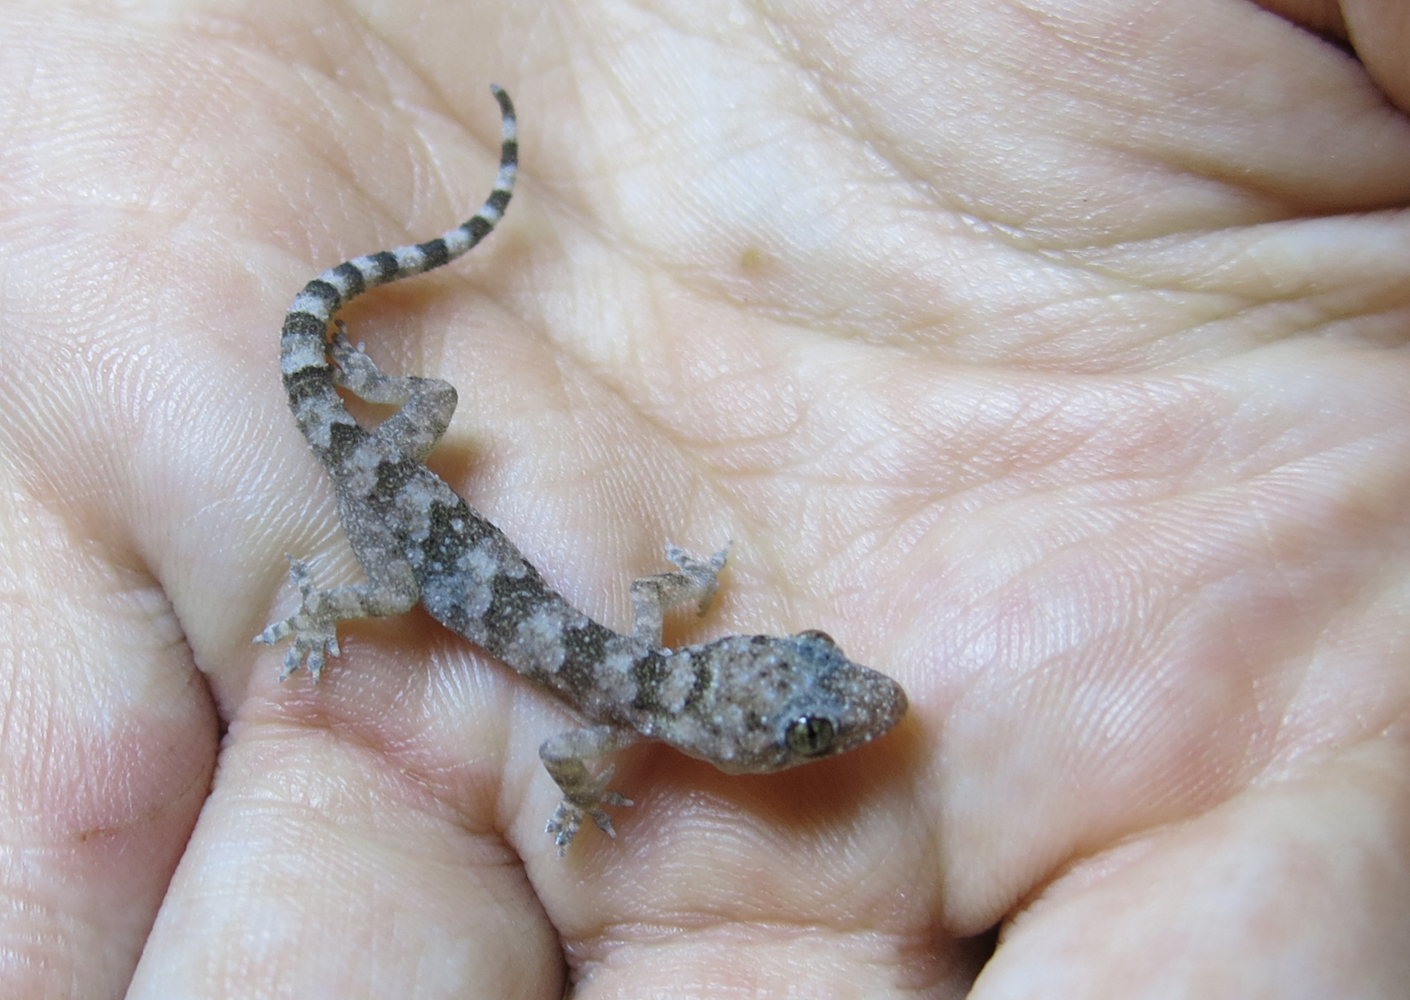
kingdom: Animalia
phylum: Chordata
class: Squamata
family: Gekkonidae
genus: Hemidactylus
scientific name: Hemidactylus mabouia
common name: House gecko
